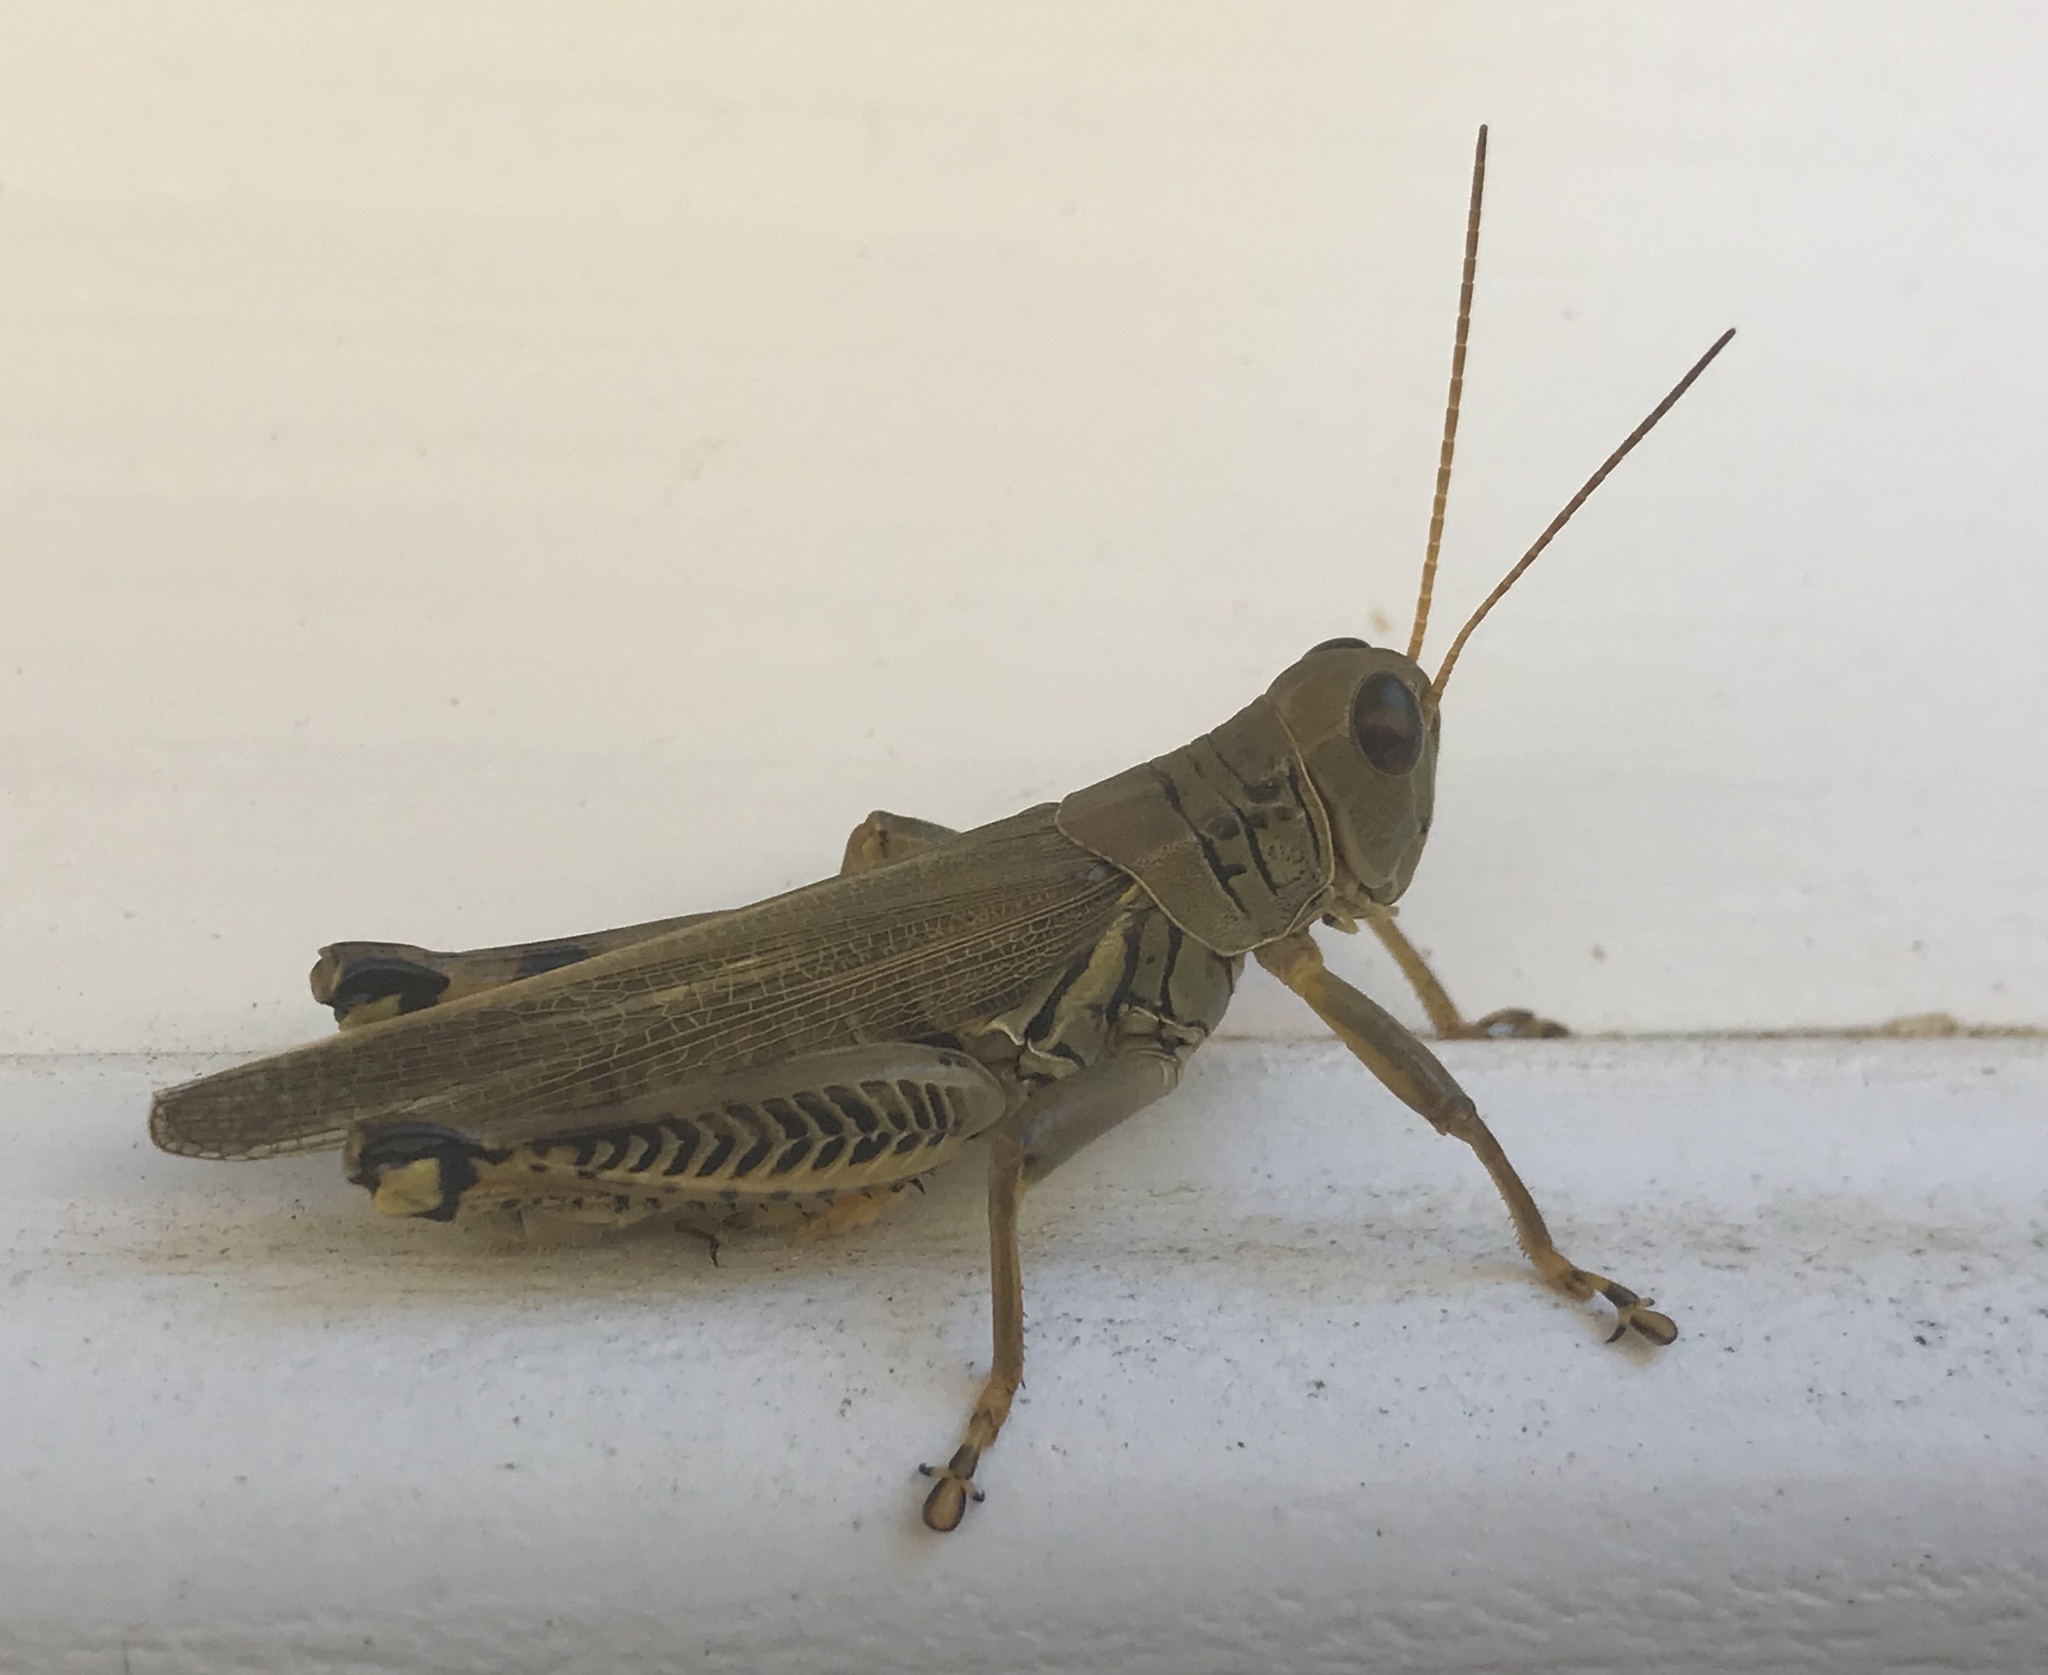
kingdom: Animalia
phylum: Arthropoda
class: Insecta
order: Orthoptera
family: Acrididae
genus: Melanoplus
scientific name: Melanoplus differentialis
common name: Differential grasshopper
